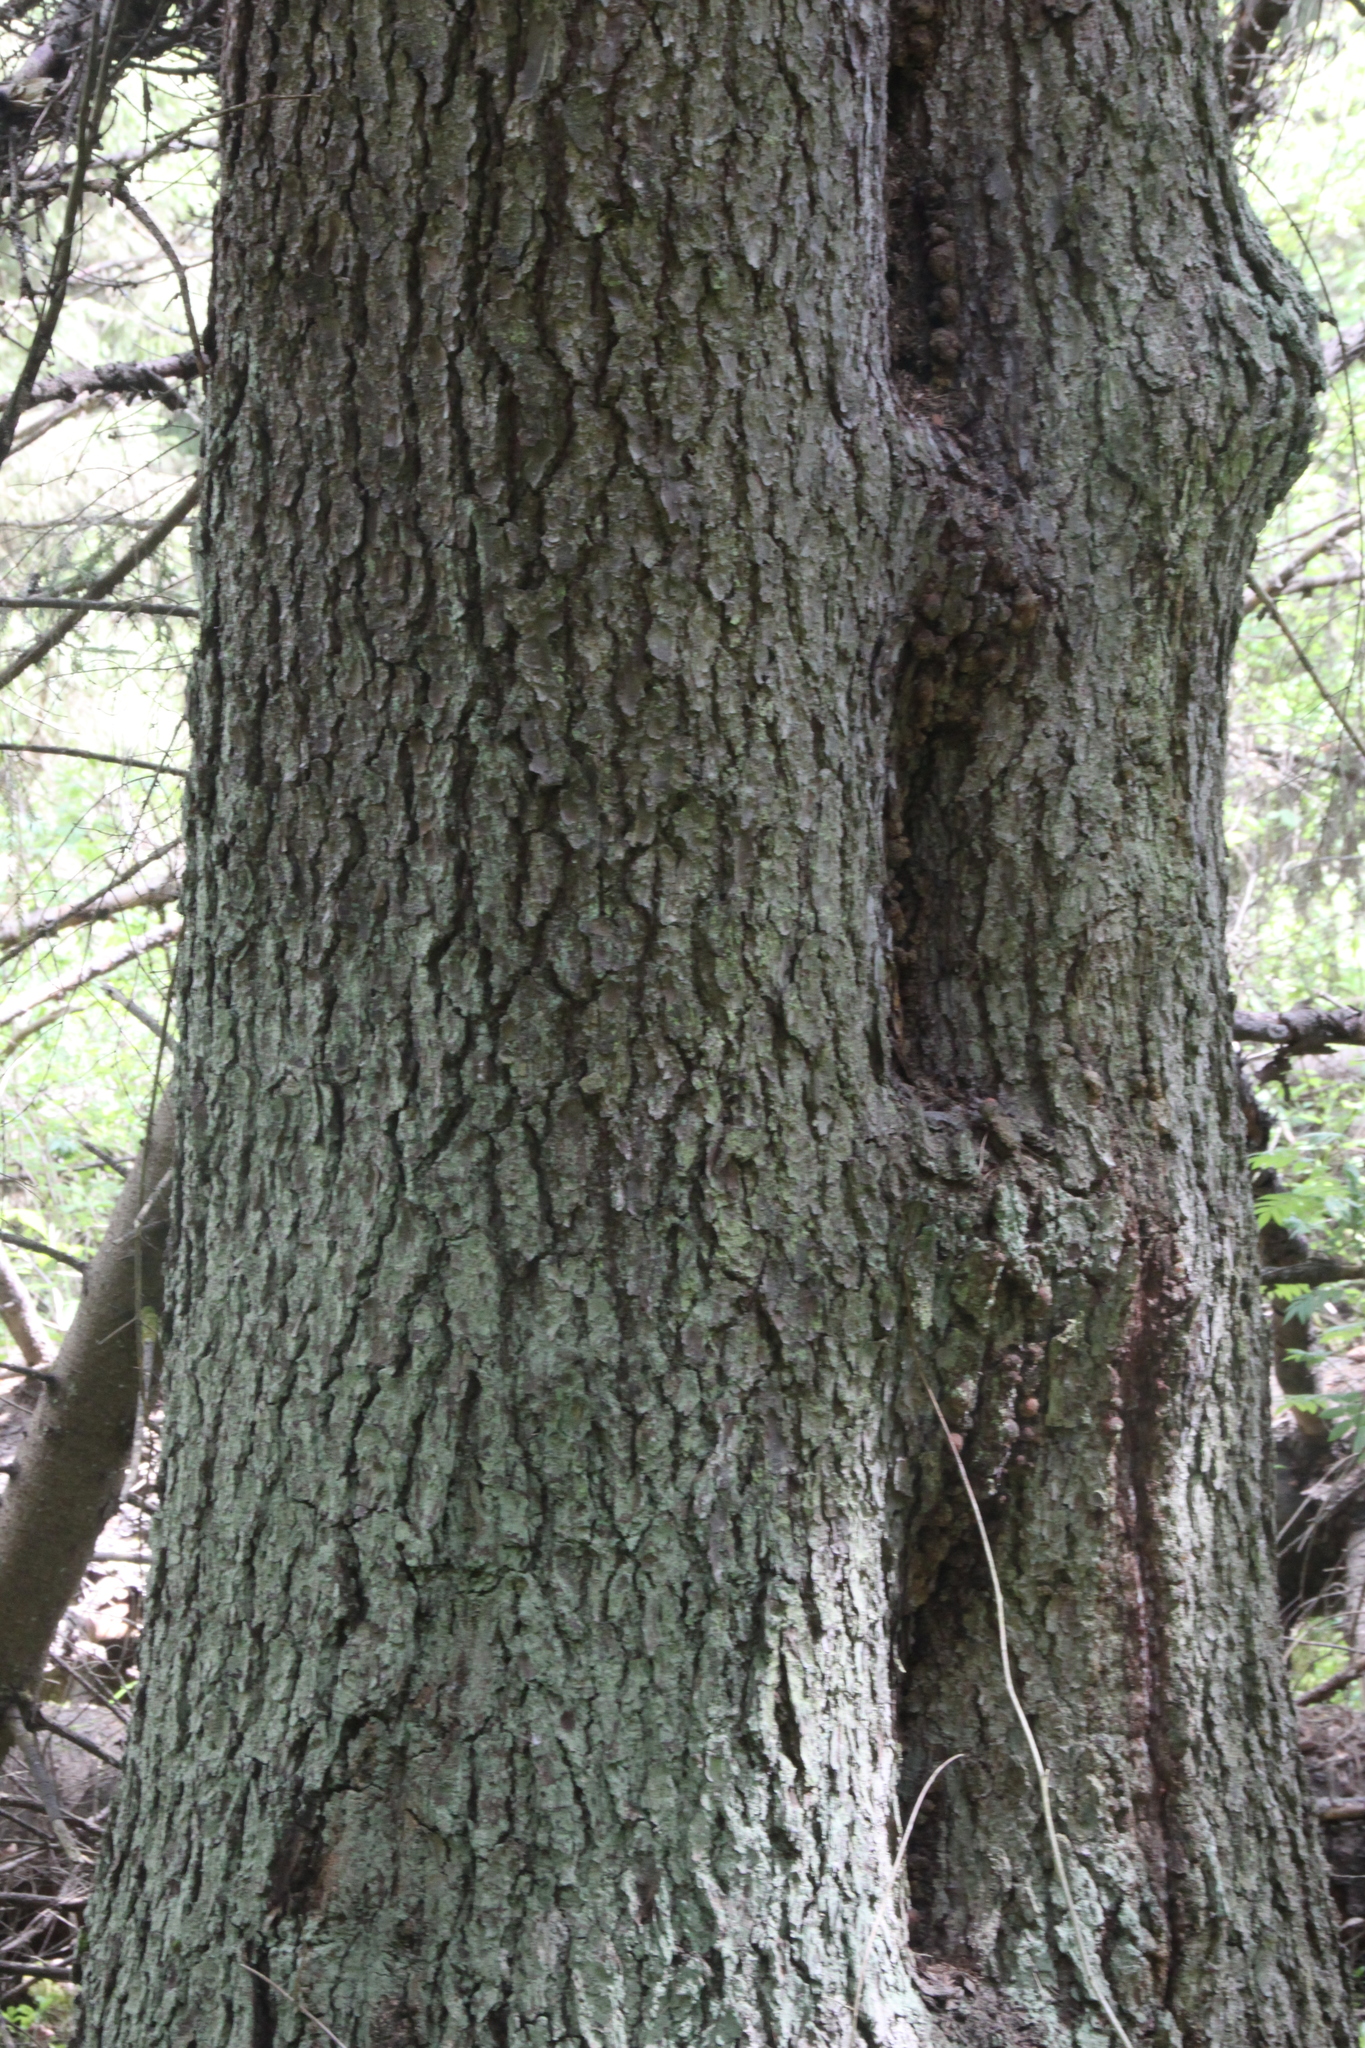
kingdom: Plantae
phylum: Tracheophyta
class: Pinopsida
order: Pinales
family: Pinaceae
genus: Picea
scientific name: Picea abies
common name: Norway spruce
